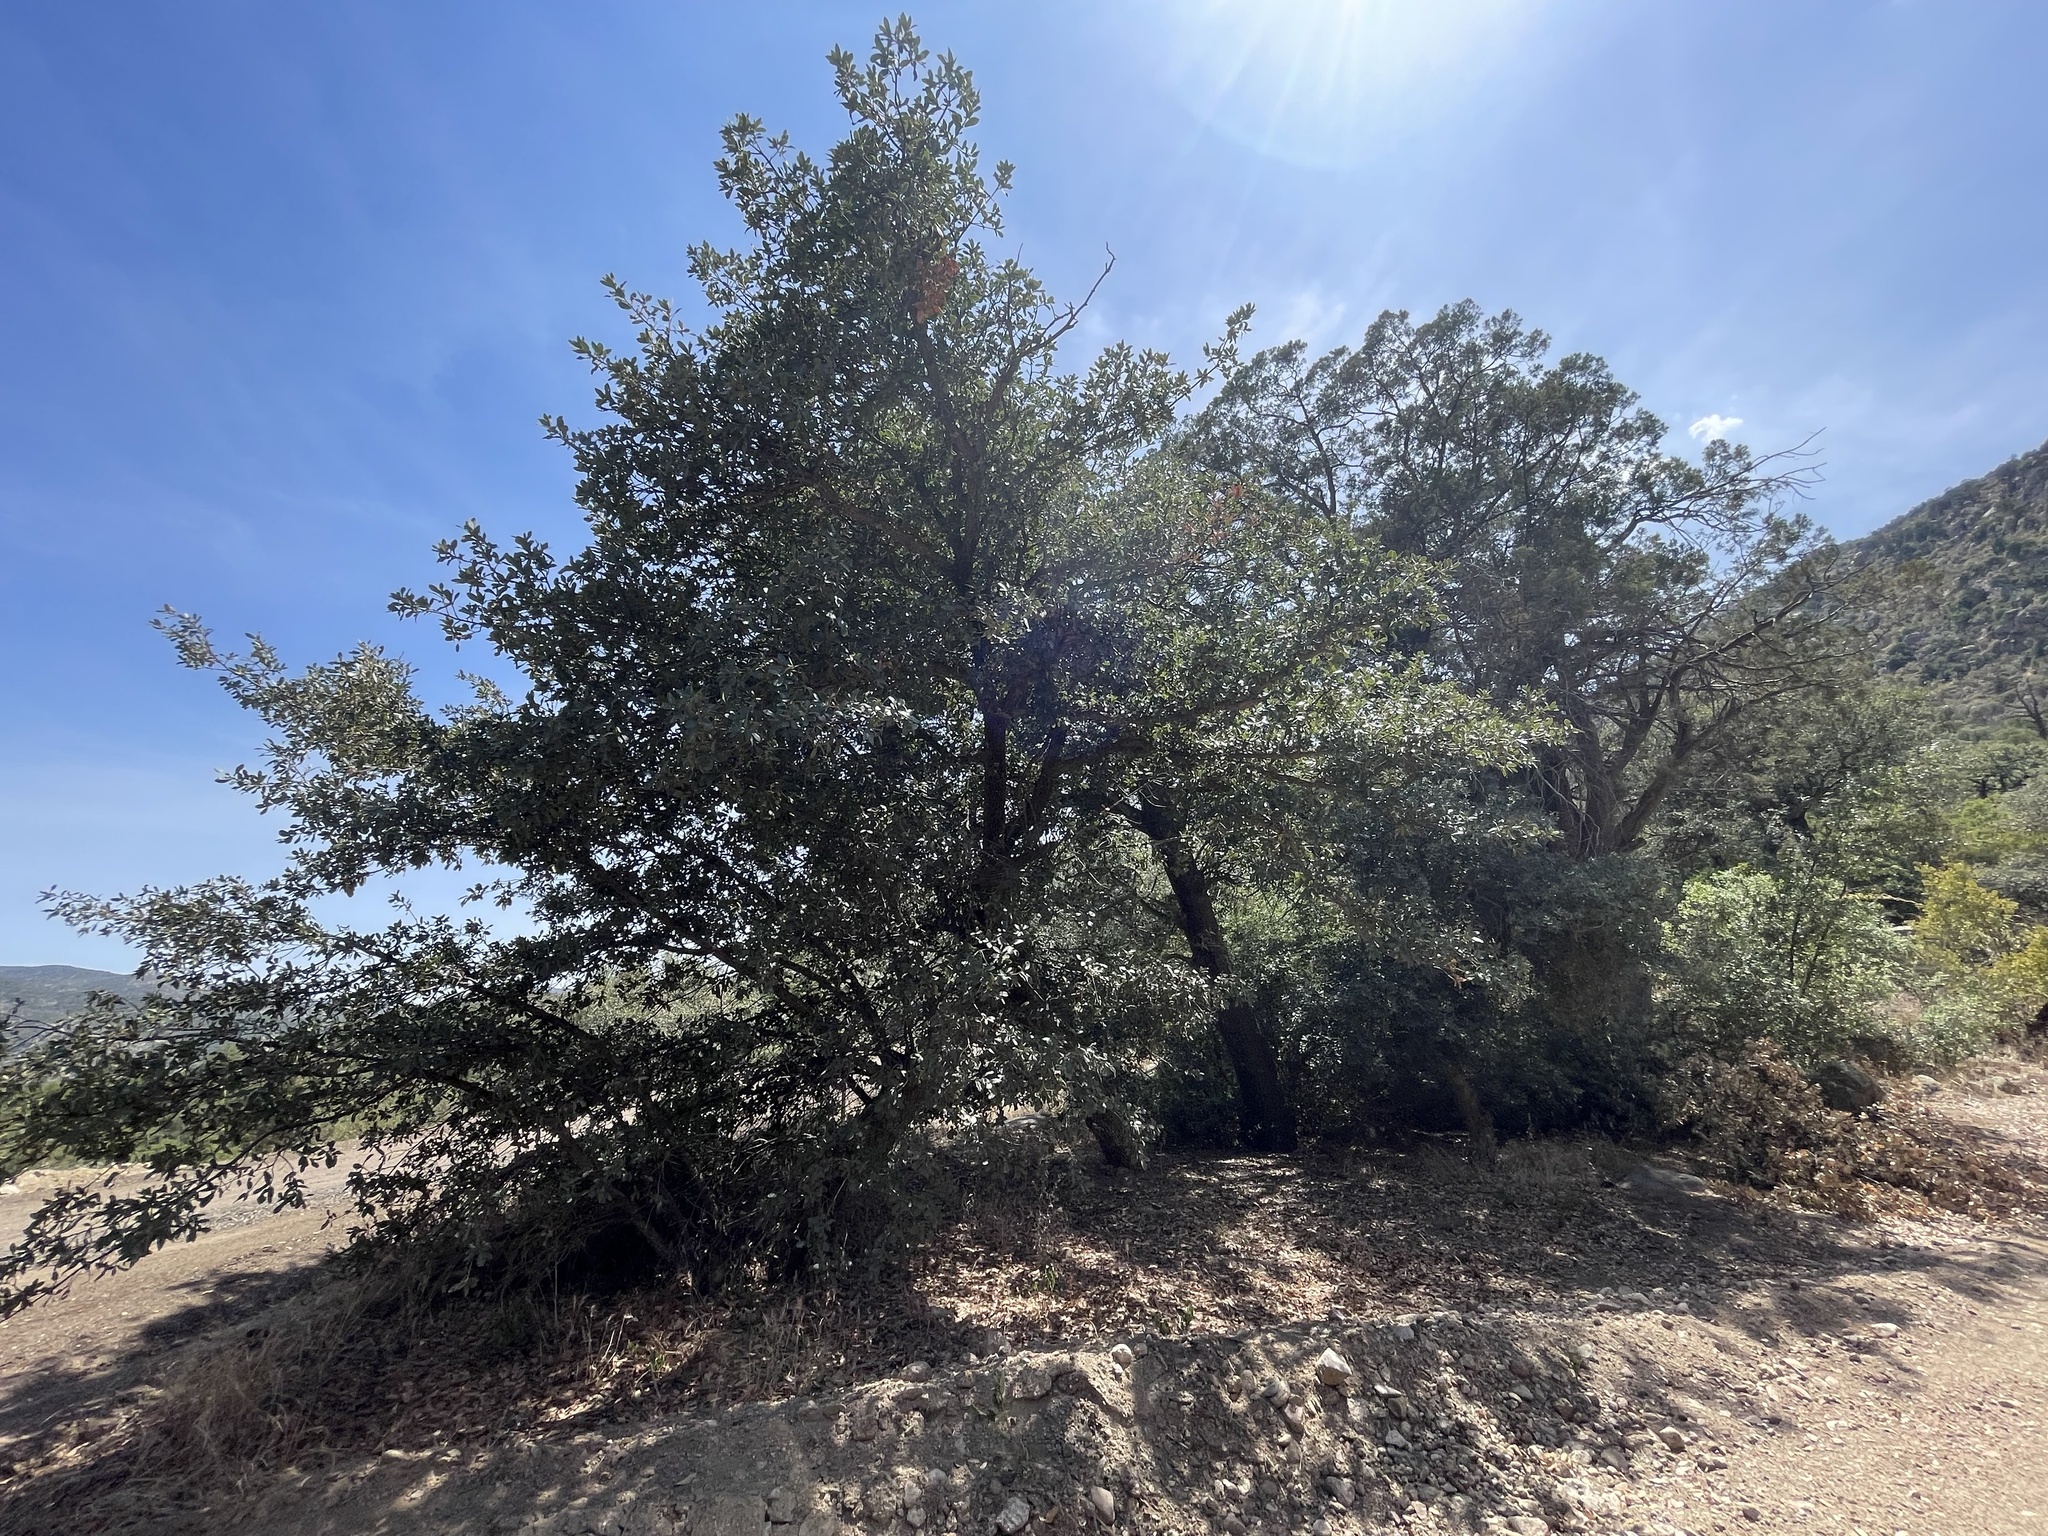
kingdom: Plantae
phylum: Tracheophyta
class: Magnoliopsida
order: Fagales
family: Fagaceae
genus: Quercus
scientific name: Quercus arizonica
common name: Arizona white oak
